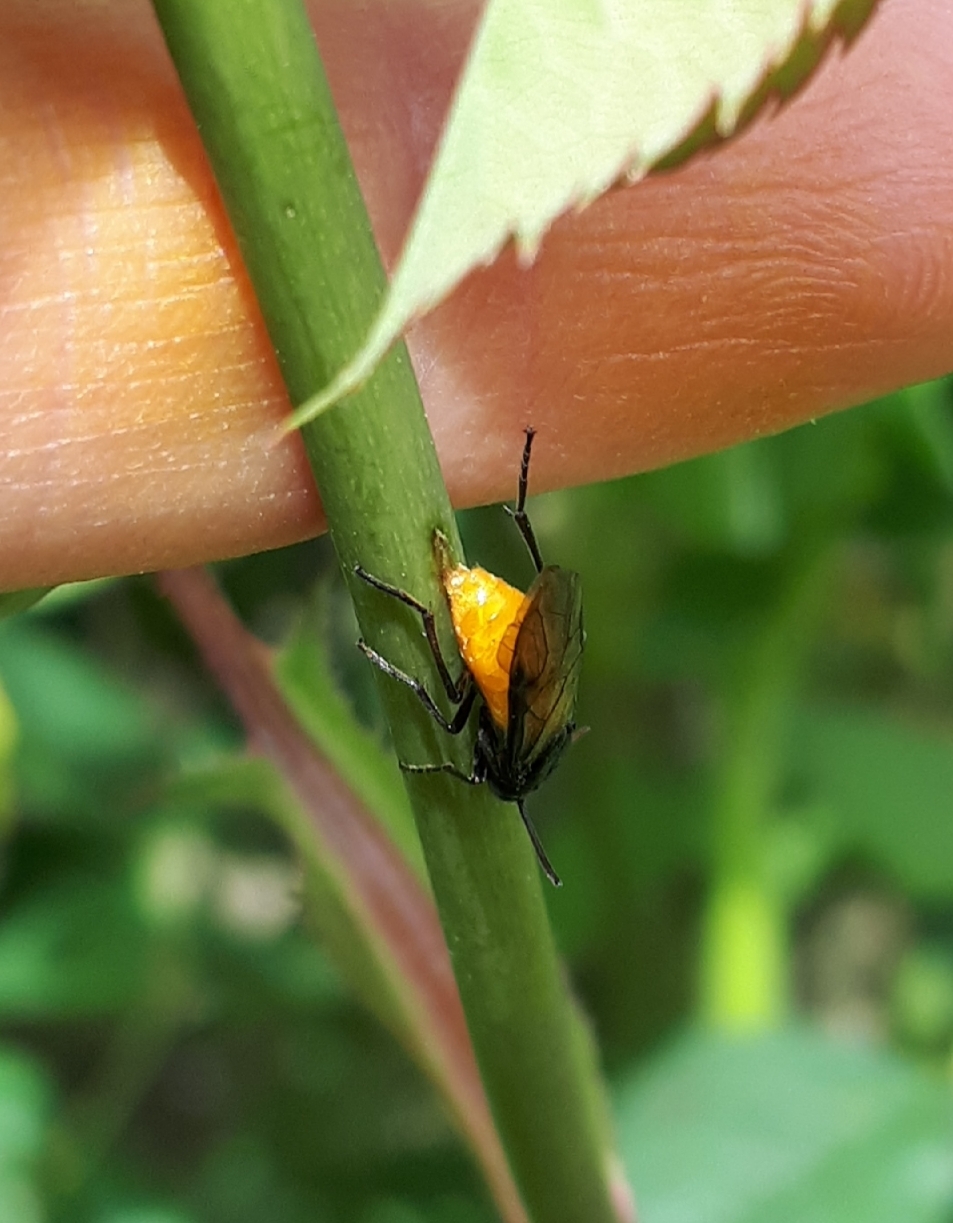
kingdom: Animalia
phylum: Arthropoda
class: Insecta
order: Hymenoptera
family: Argidae
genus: Arge
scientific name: Arge pagana
